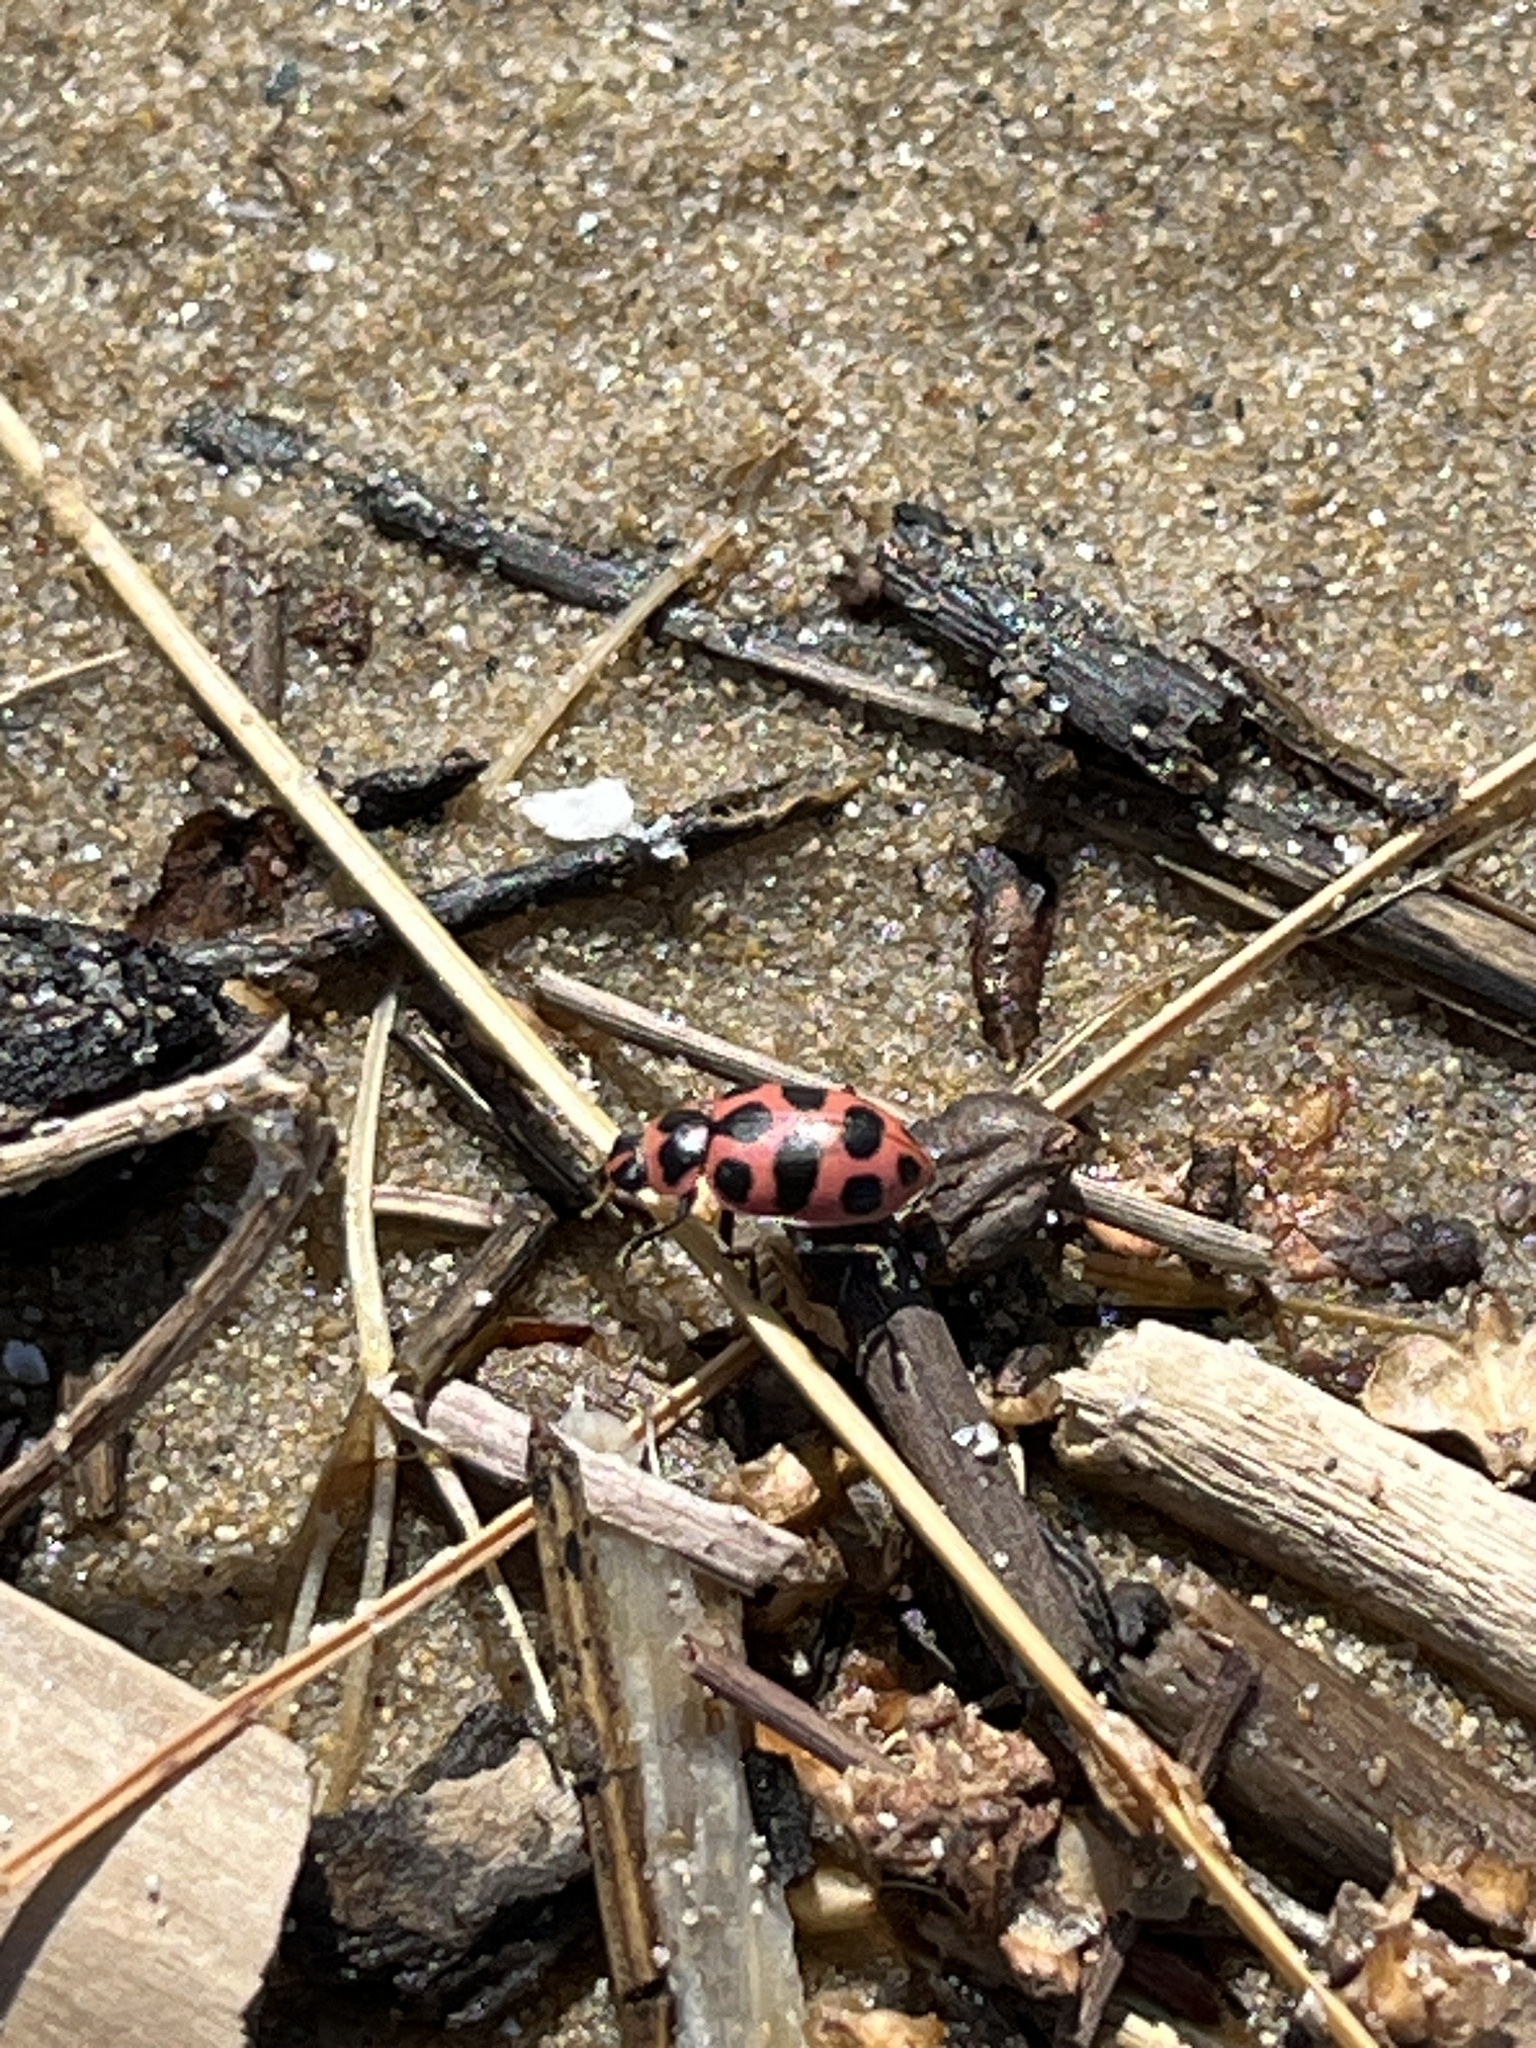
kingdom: Animalia
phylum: Arthropoda
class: Insecta
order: Coleoptera
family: Coccinellidae
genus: Coleomegilla
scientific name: Coleomegilla maculata
